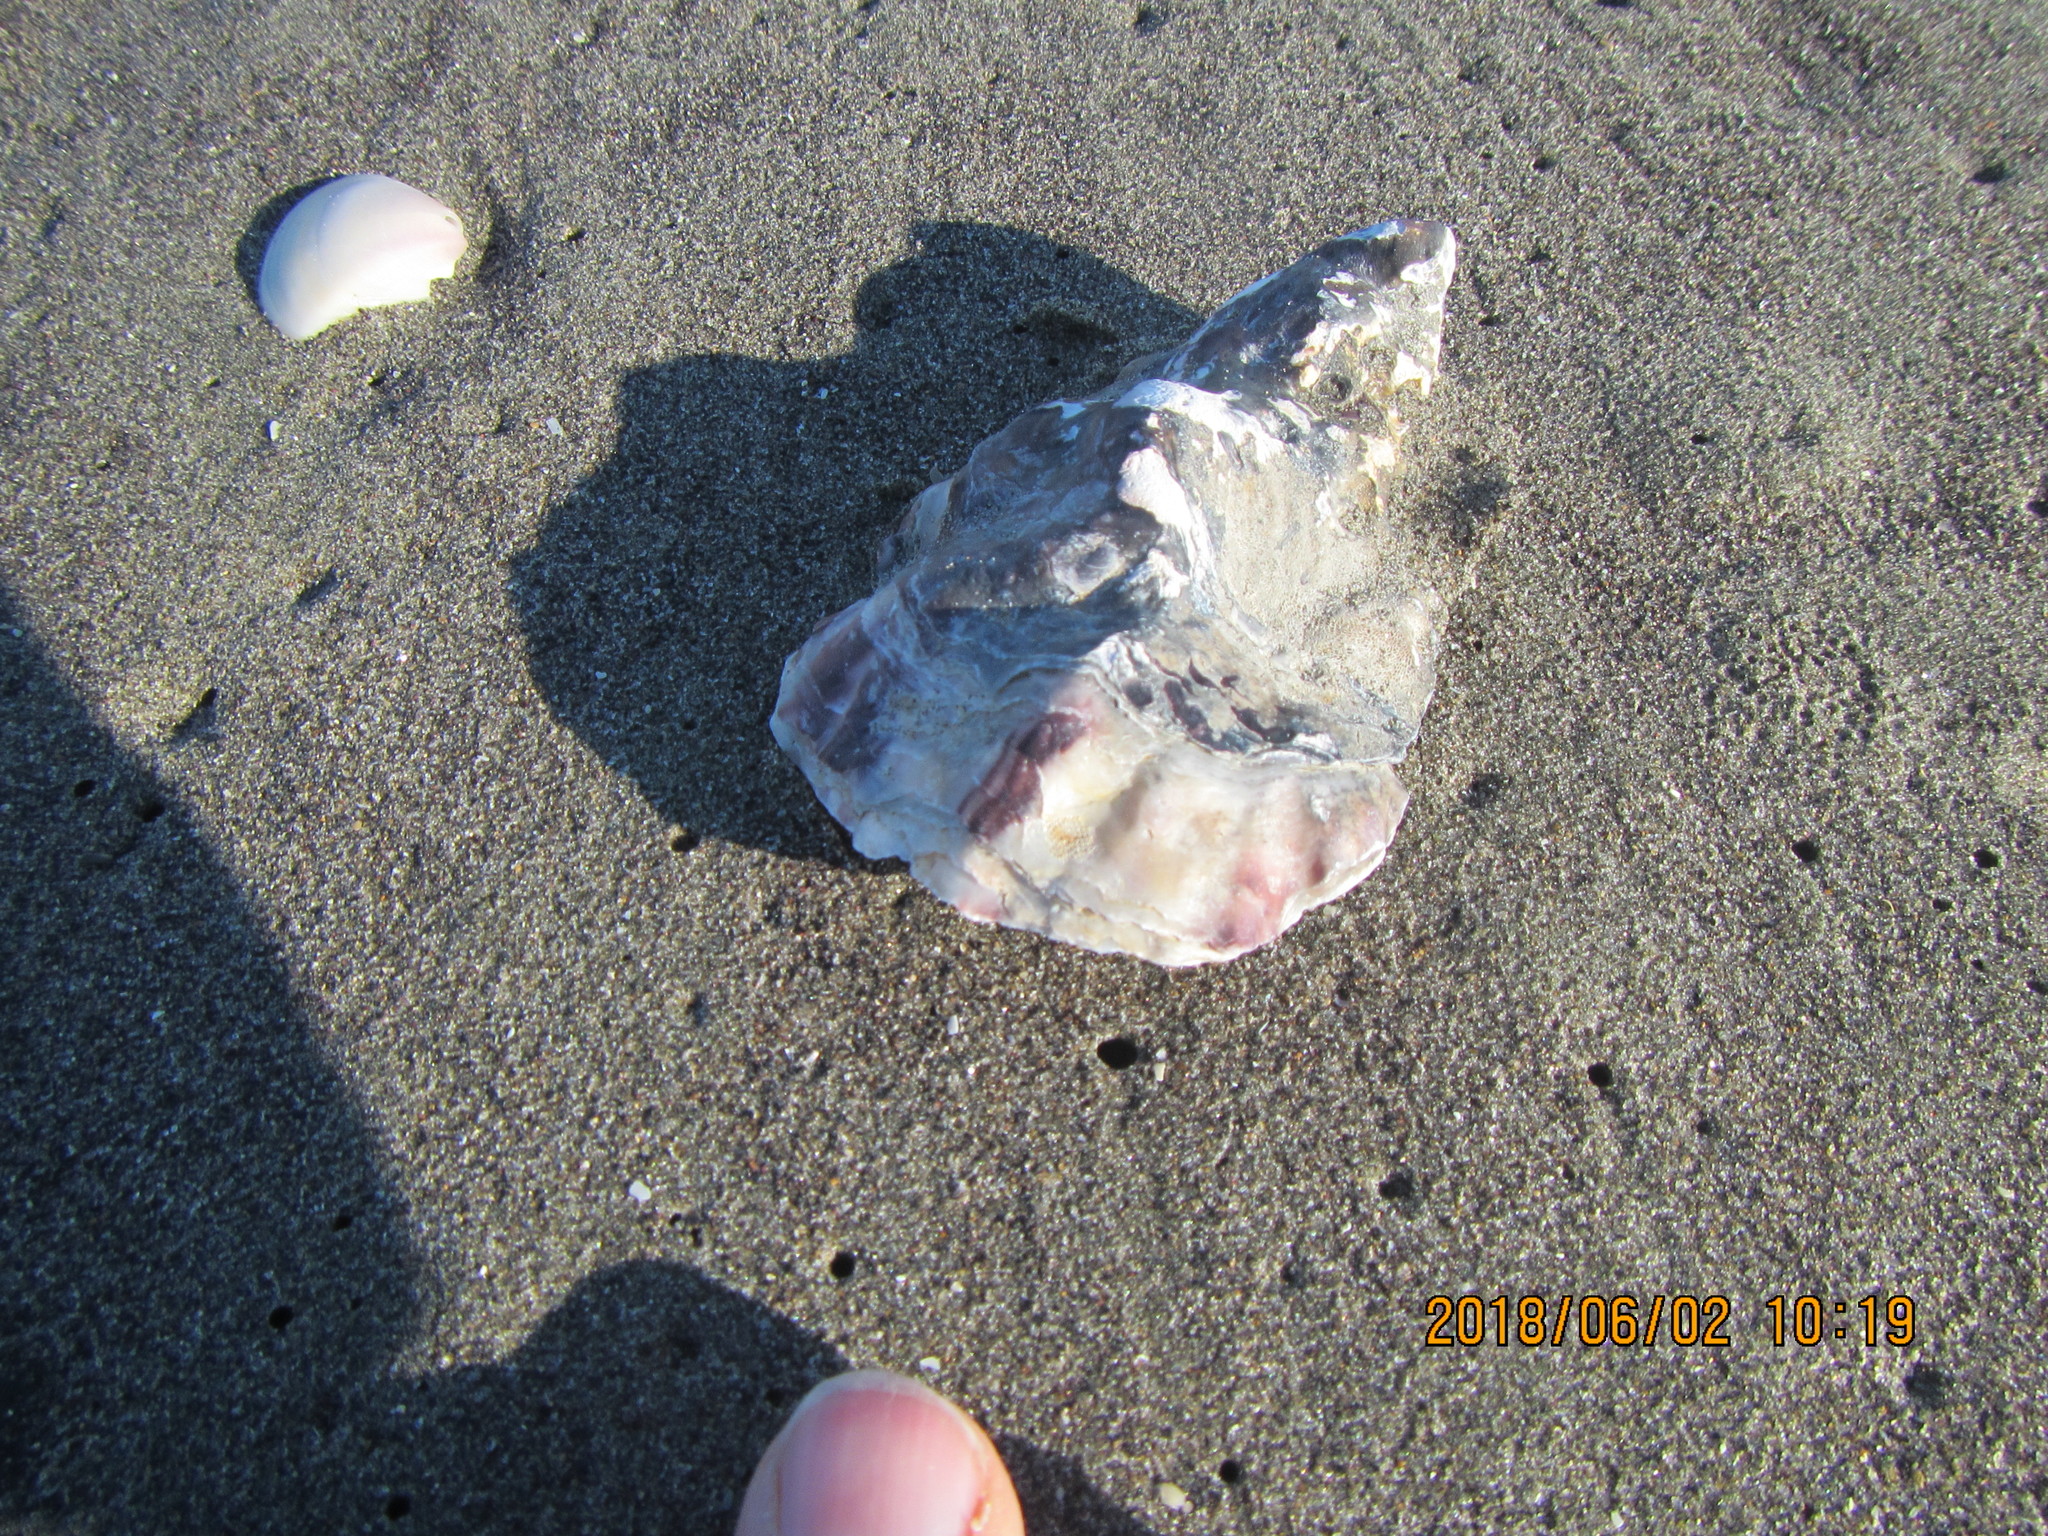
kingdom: Animalia
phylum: Mollusca
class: Bivalvia
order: Ostreida
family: Ostreidae
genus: Magallana
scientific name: Magallana gigas
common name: Pacific oyster
